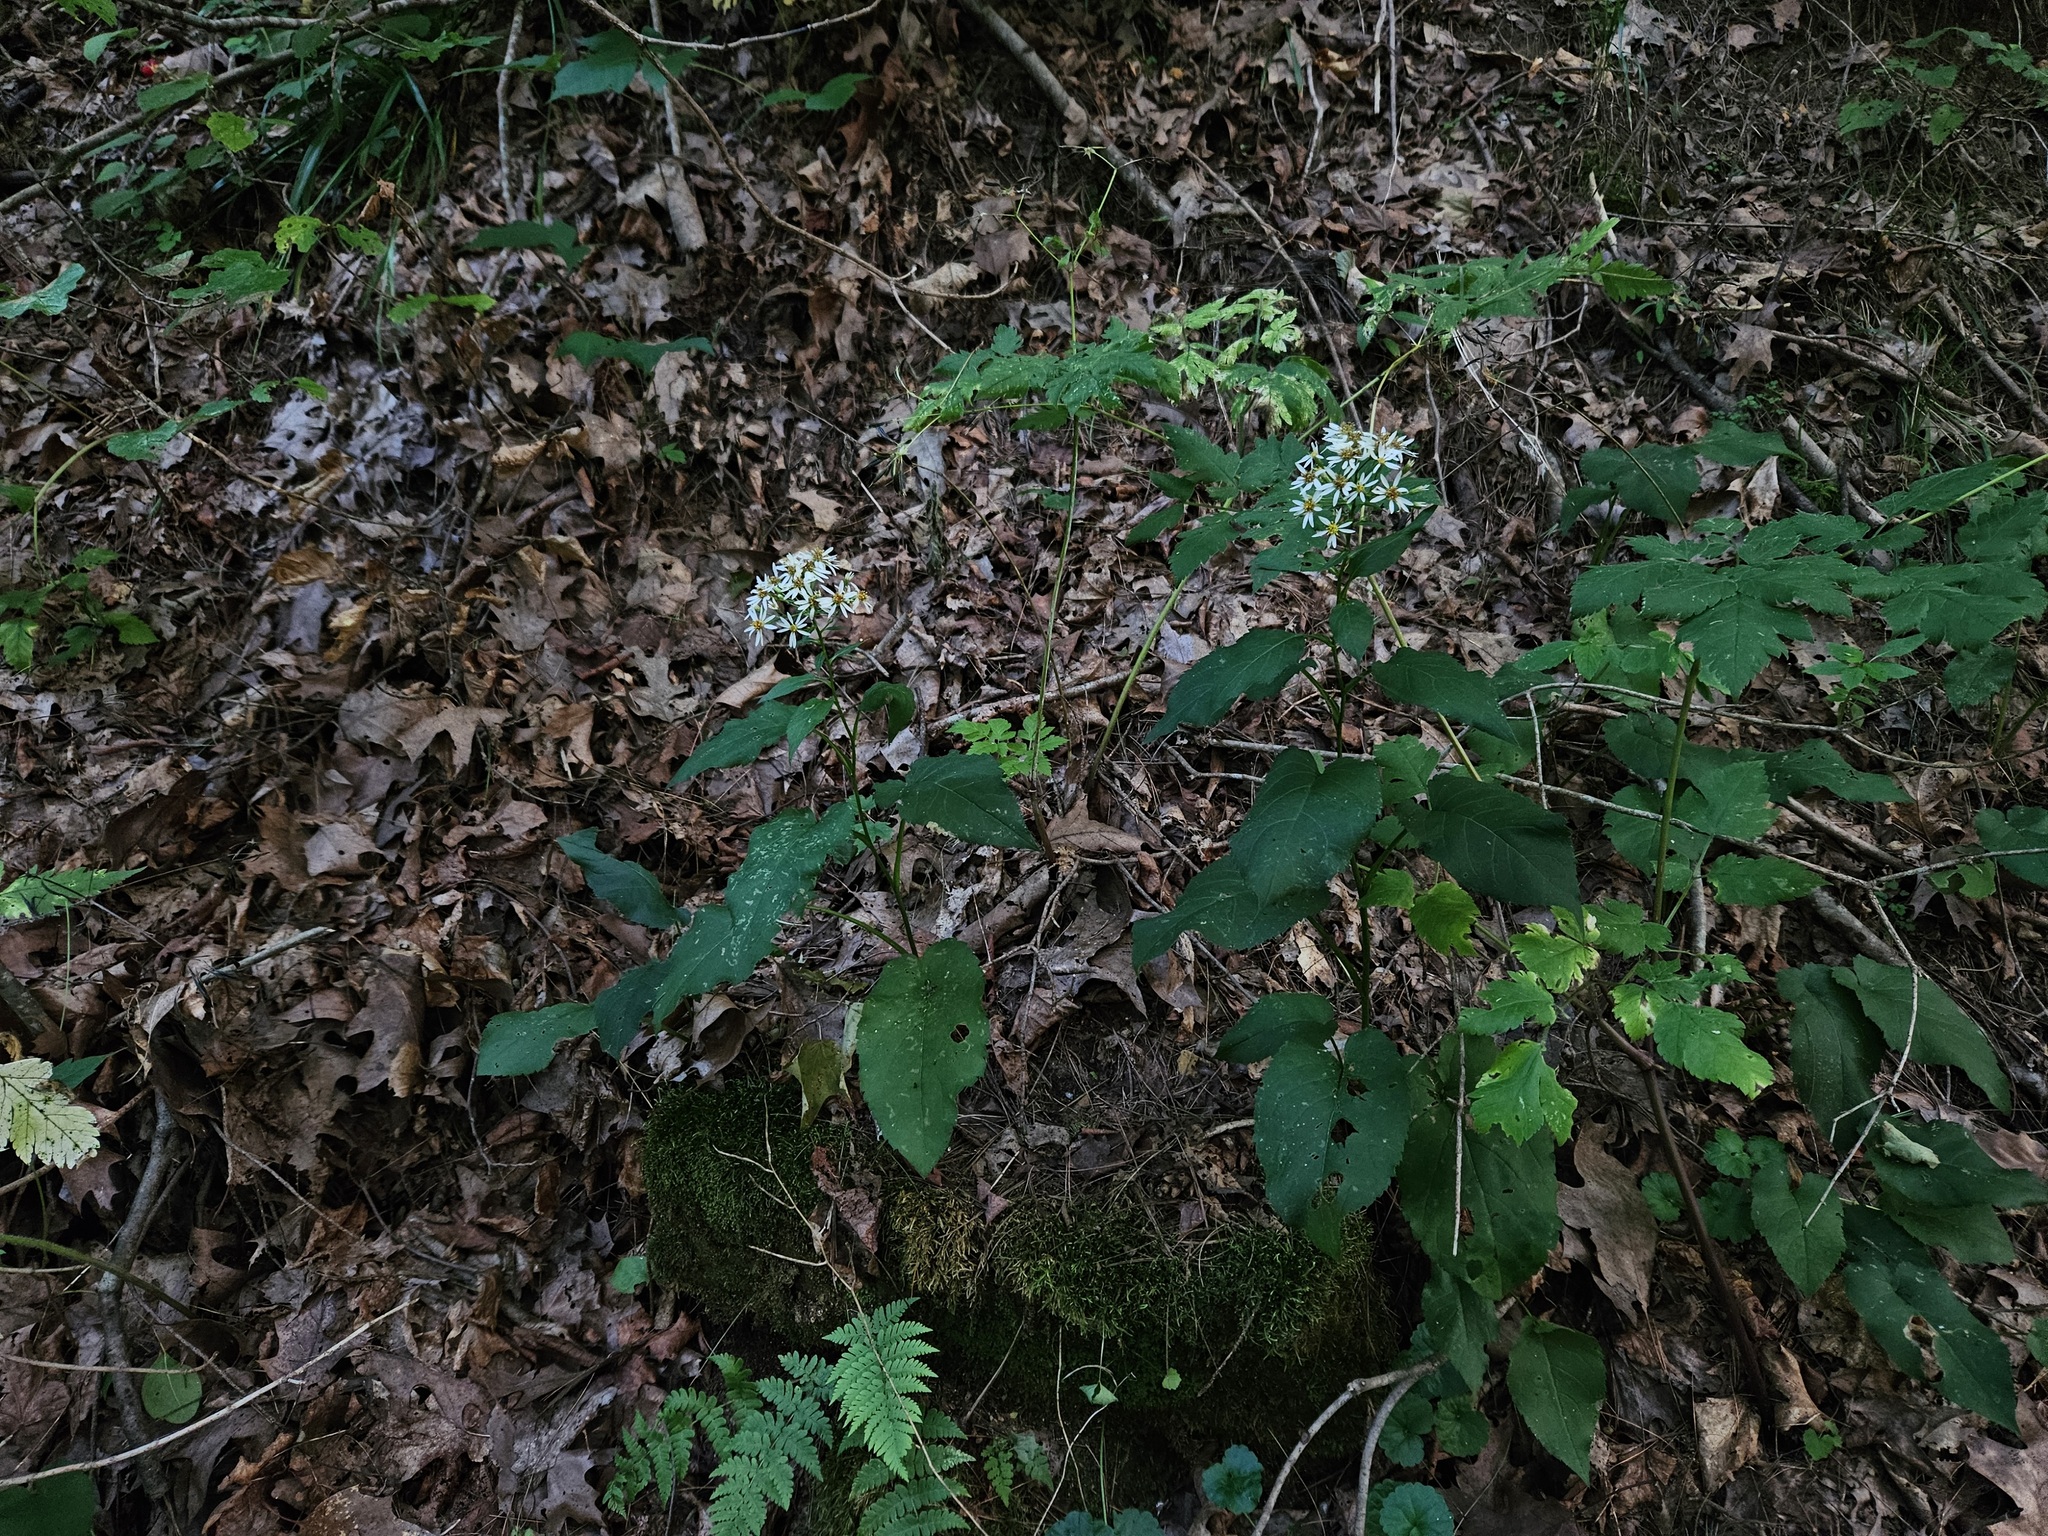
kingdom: Plantae
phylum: Tracheophyta
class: Magnoliopsida
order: Asterales
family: Asteraceae
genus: Eurybia
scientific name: Eurybia schreberi
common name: Schreber's aster
